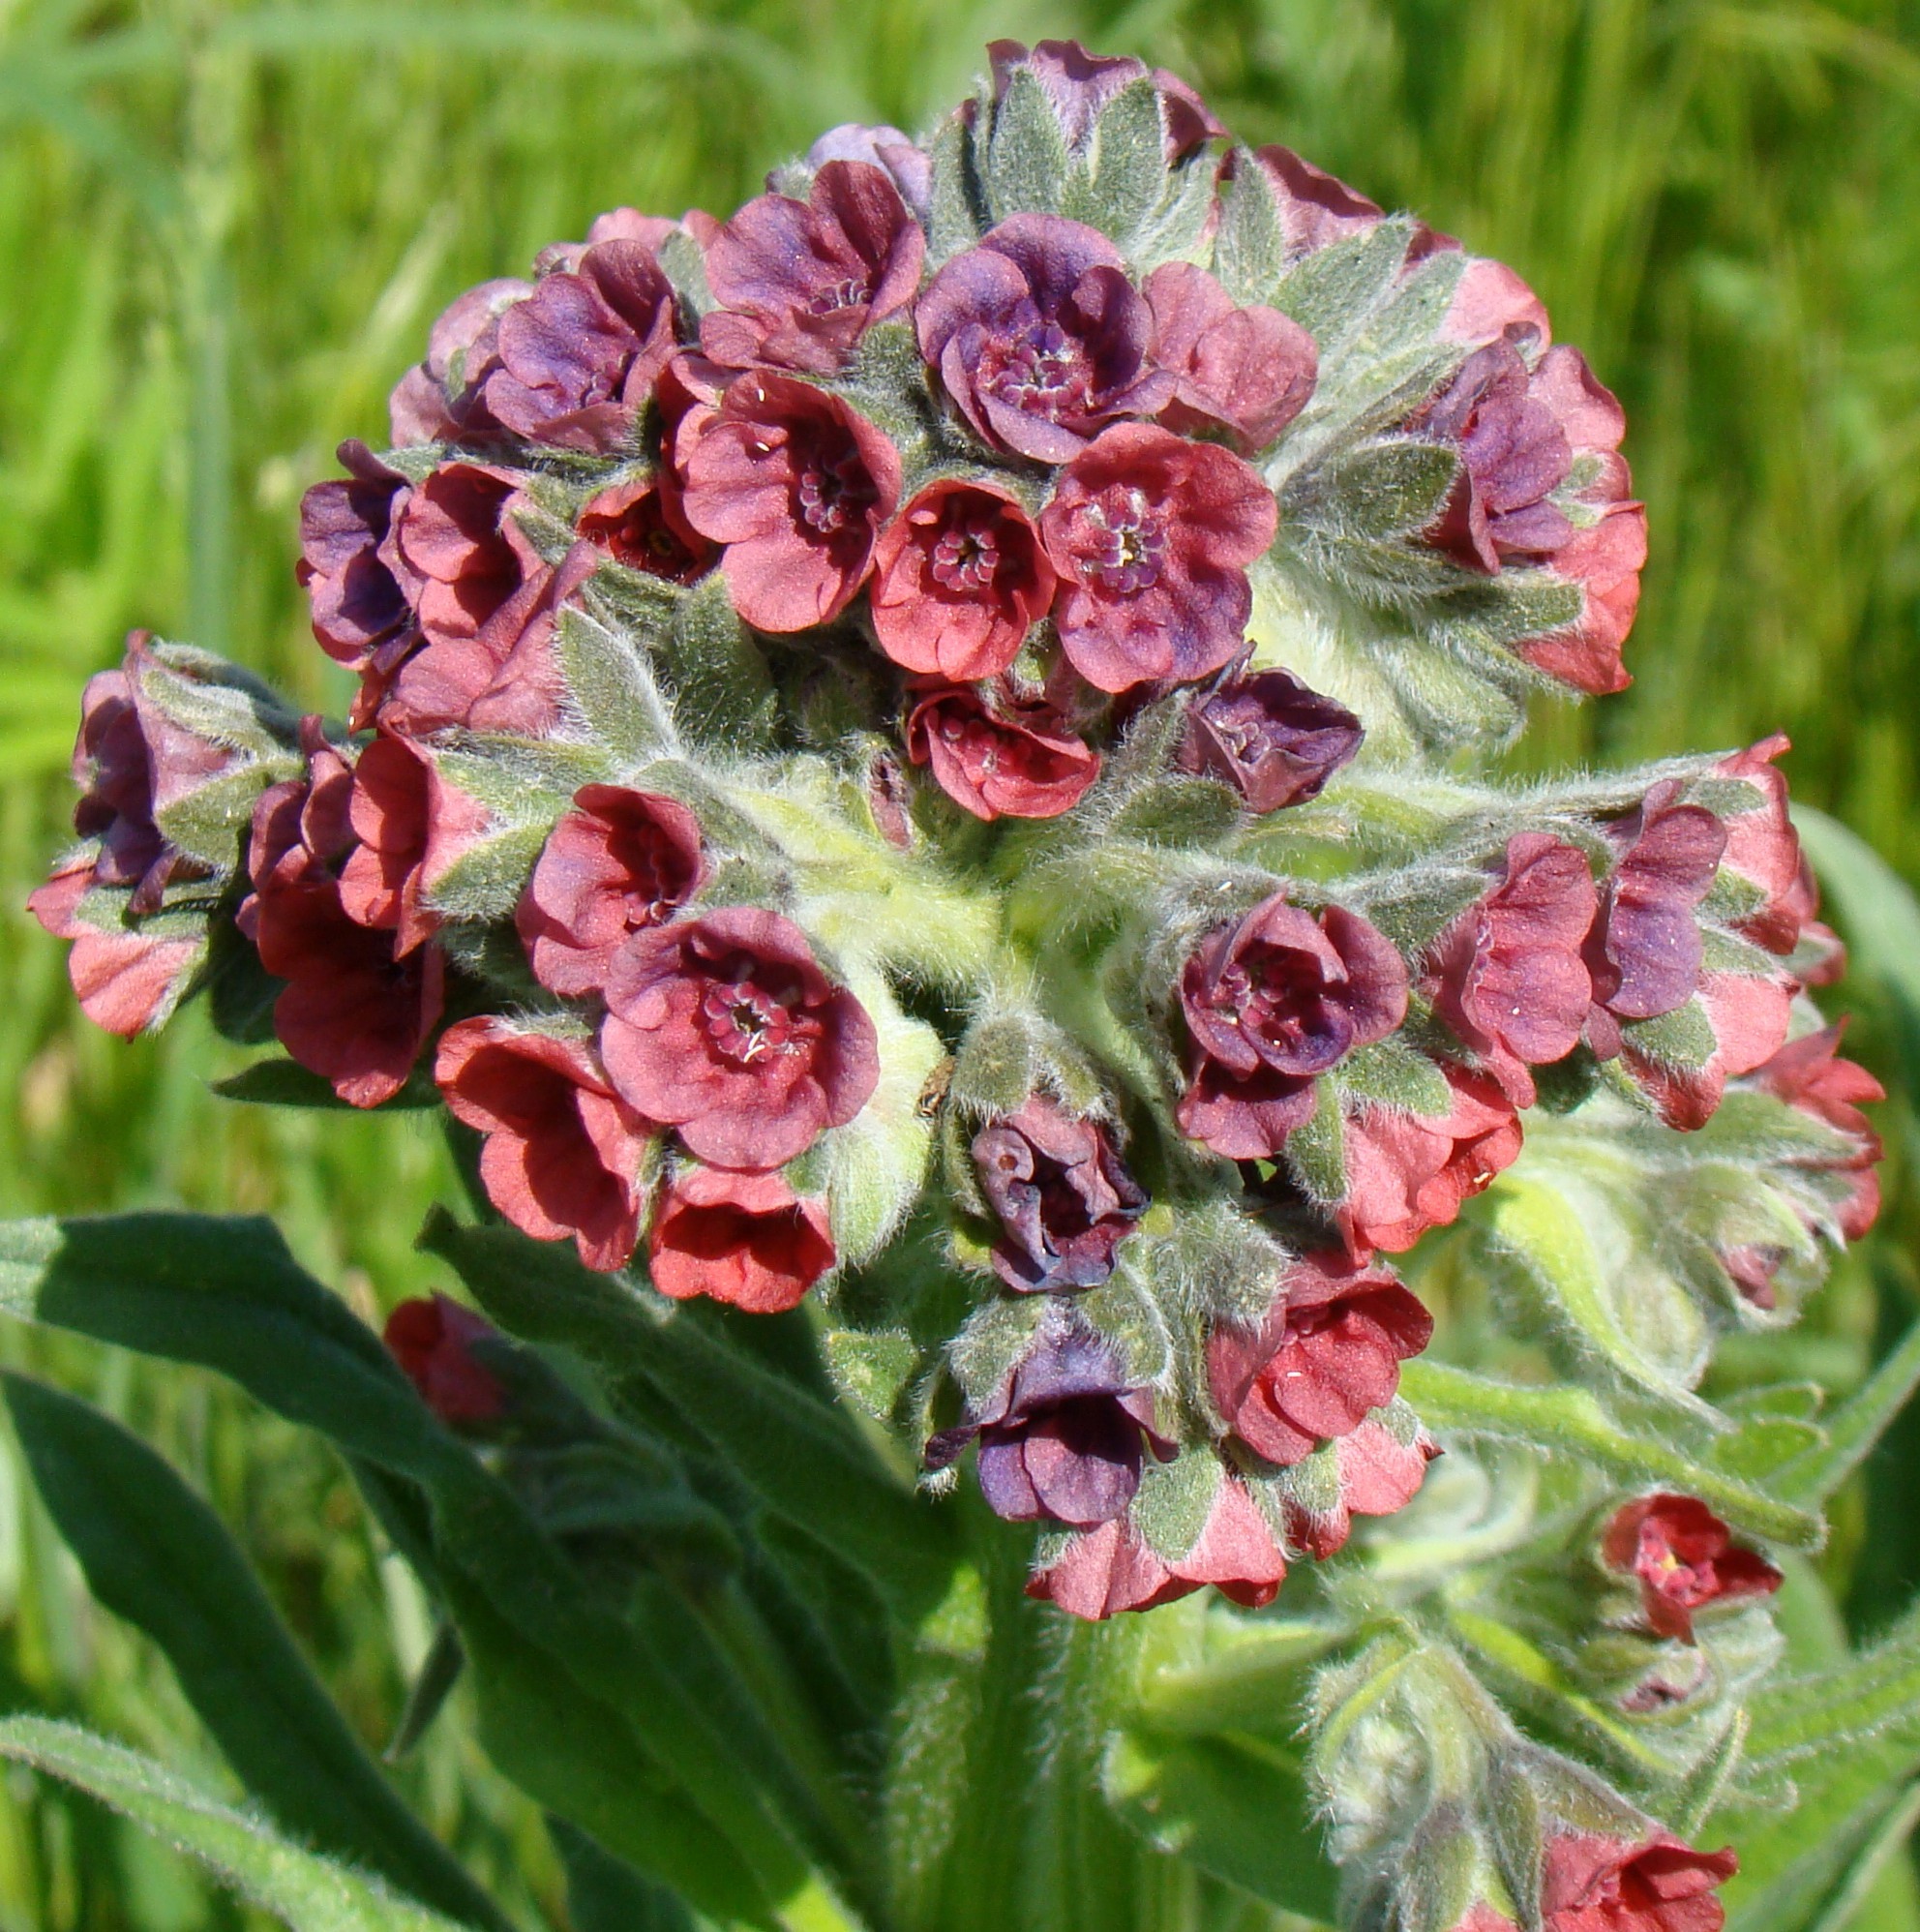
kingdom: Plantae
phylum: Tracheophyta
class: Magnoliopsida
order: Boraginales
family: Boraginaceae
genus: Cynoglossum
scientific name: Cynoglossum officinale
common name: Hound's-tongue
